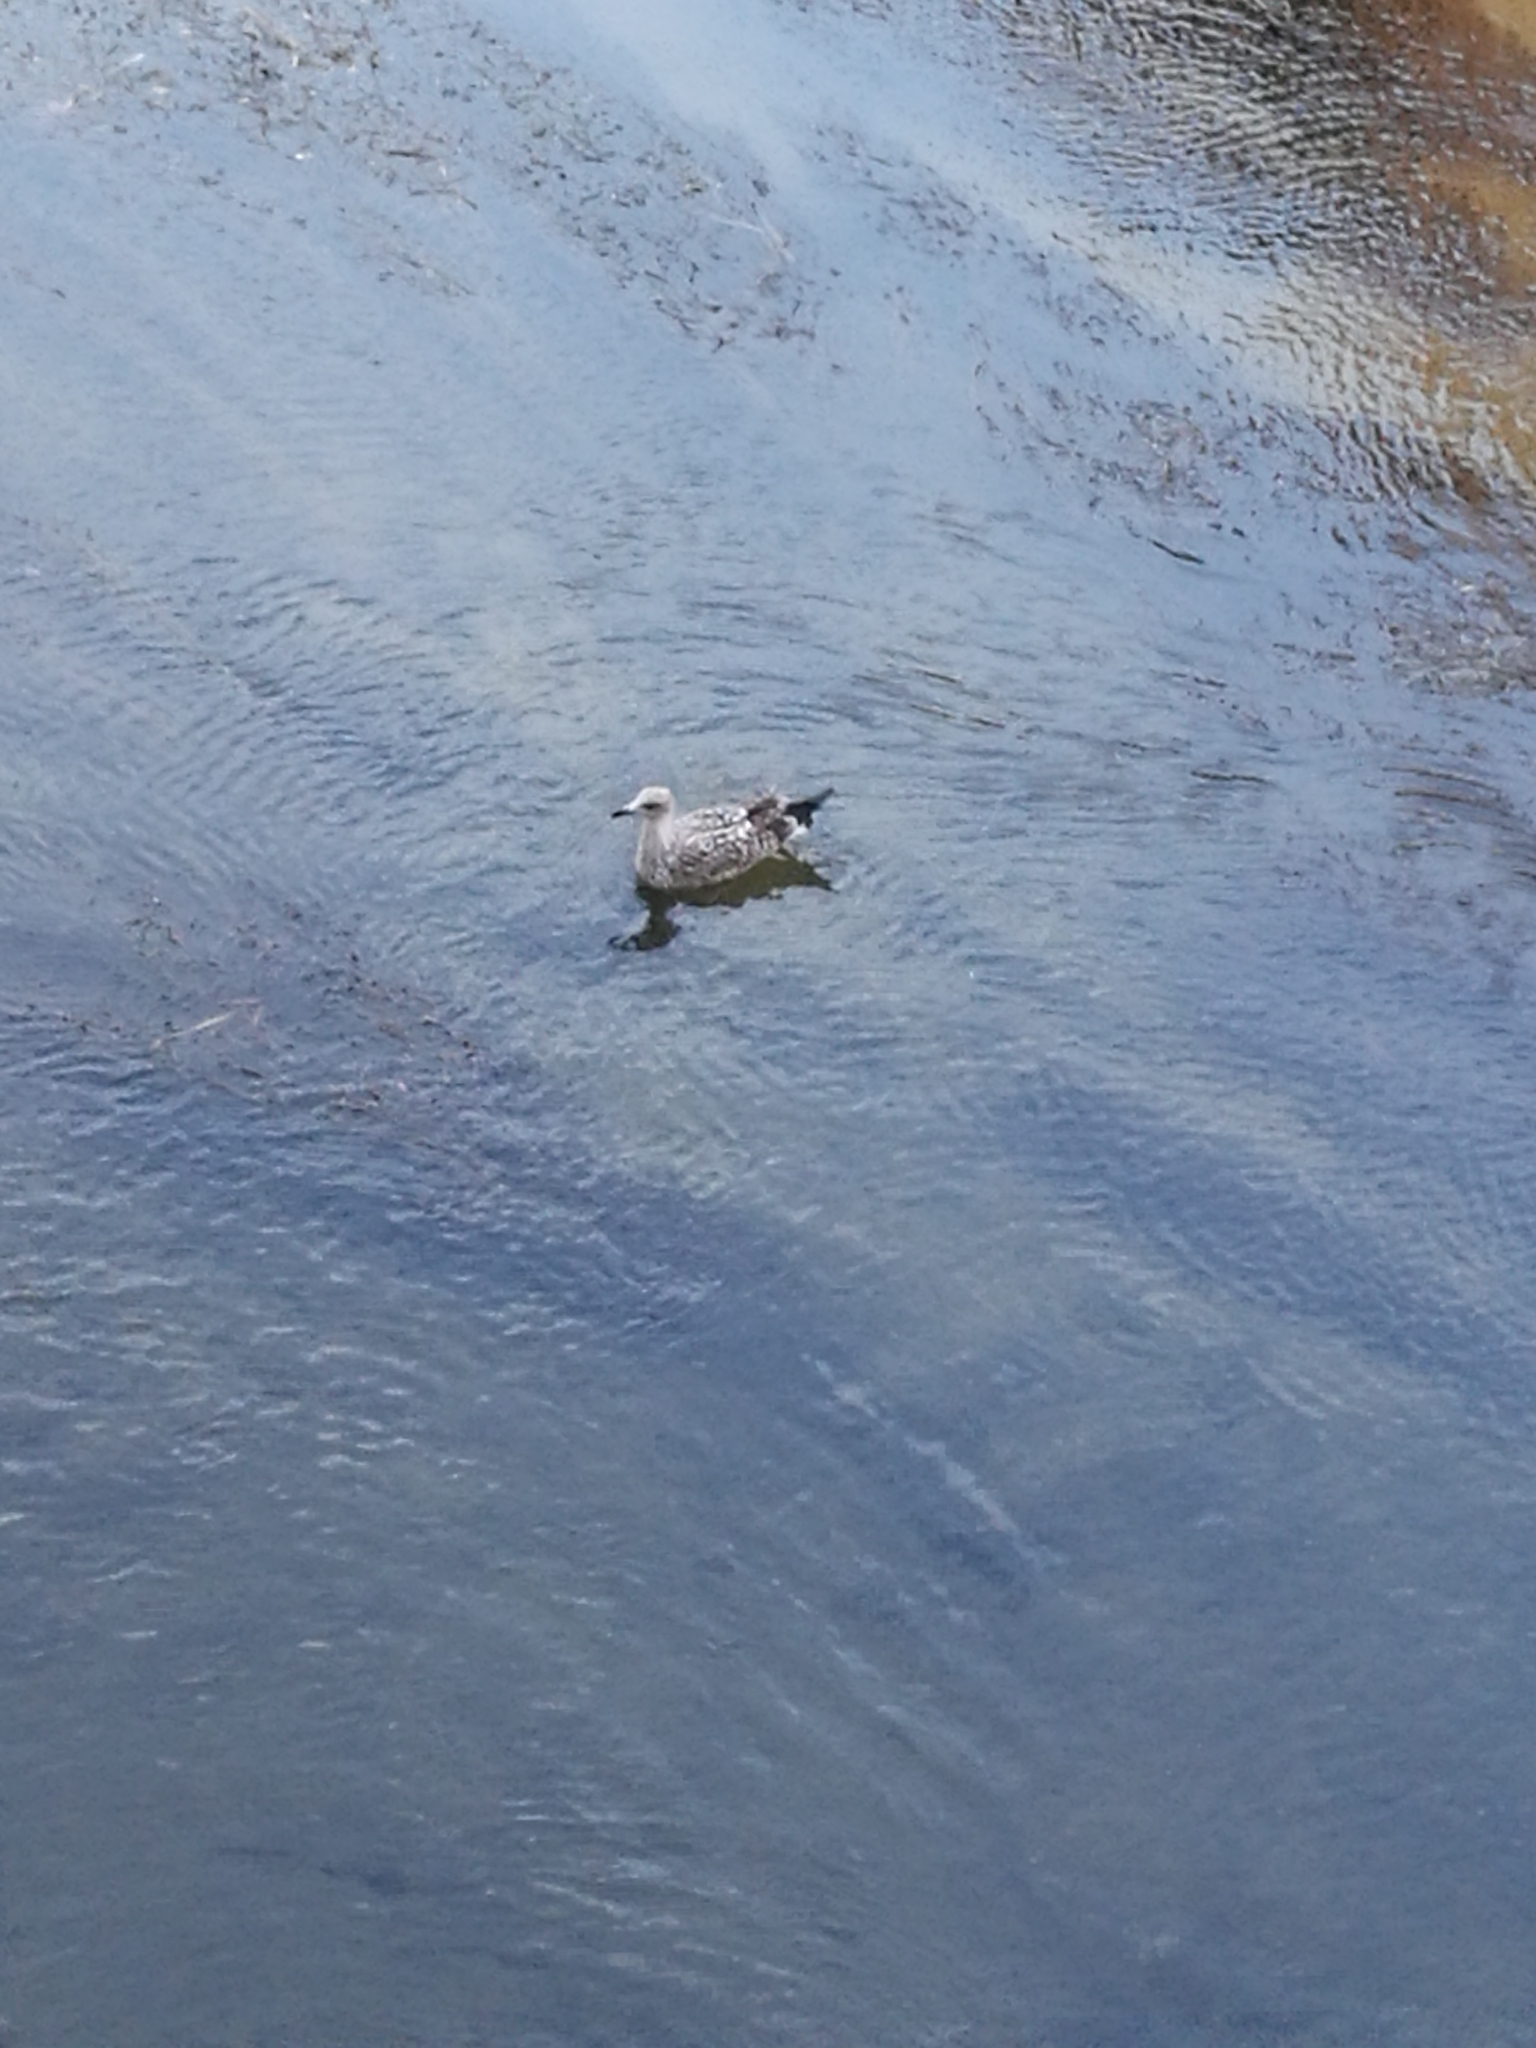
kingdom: Animalia
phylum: Chordata
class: Aves
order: Charadriiformes
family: Laridae
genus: Larus
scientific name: Larus michahellis
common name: Yellow-legged gull
